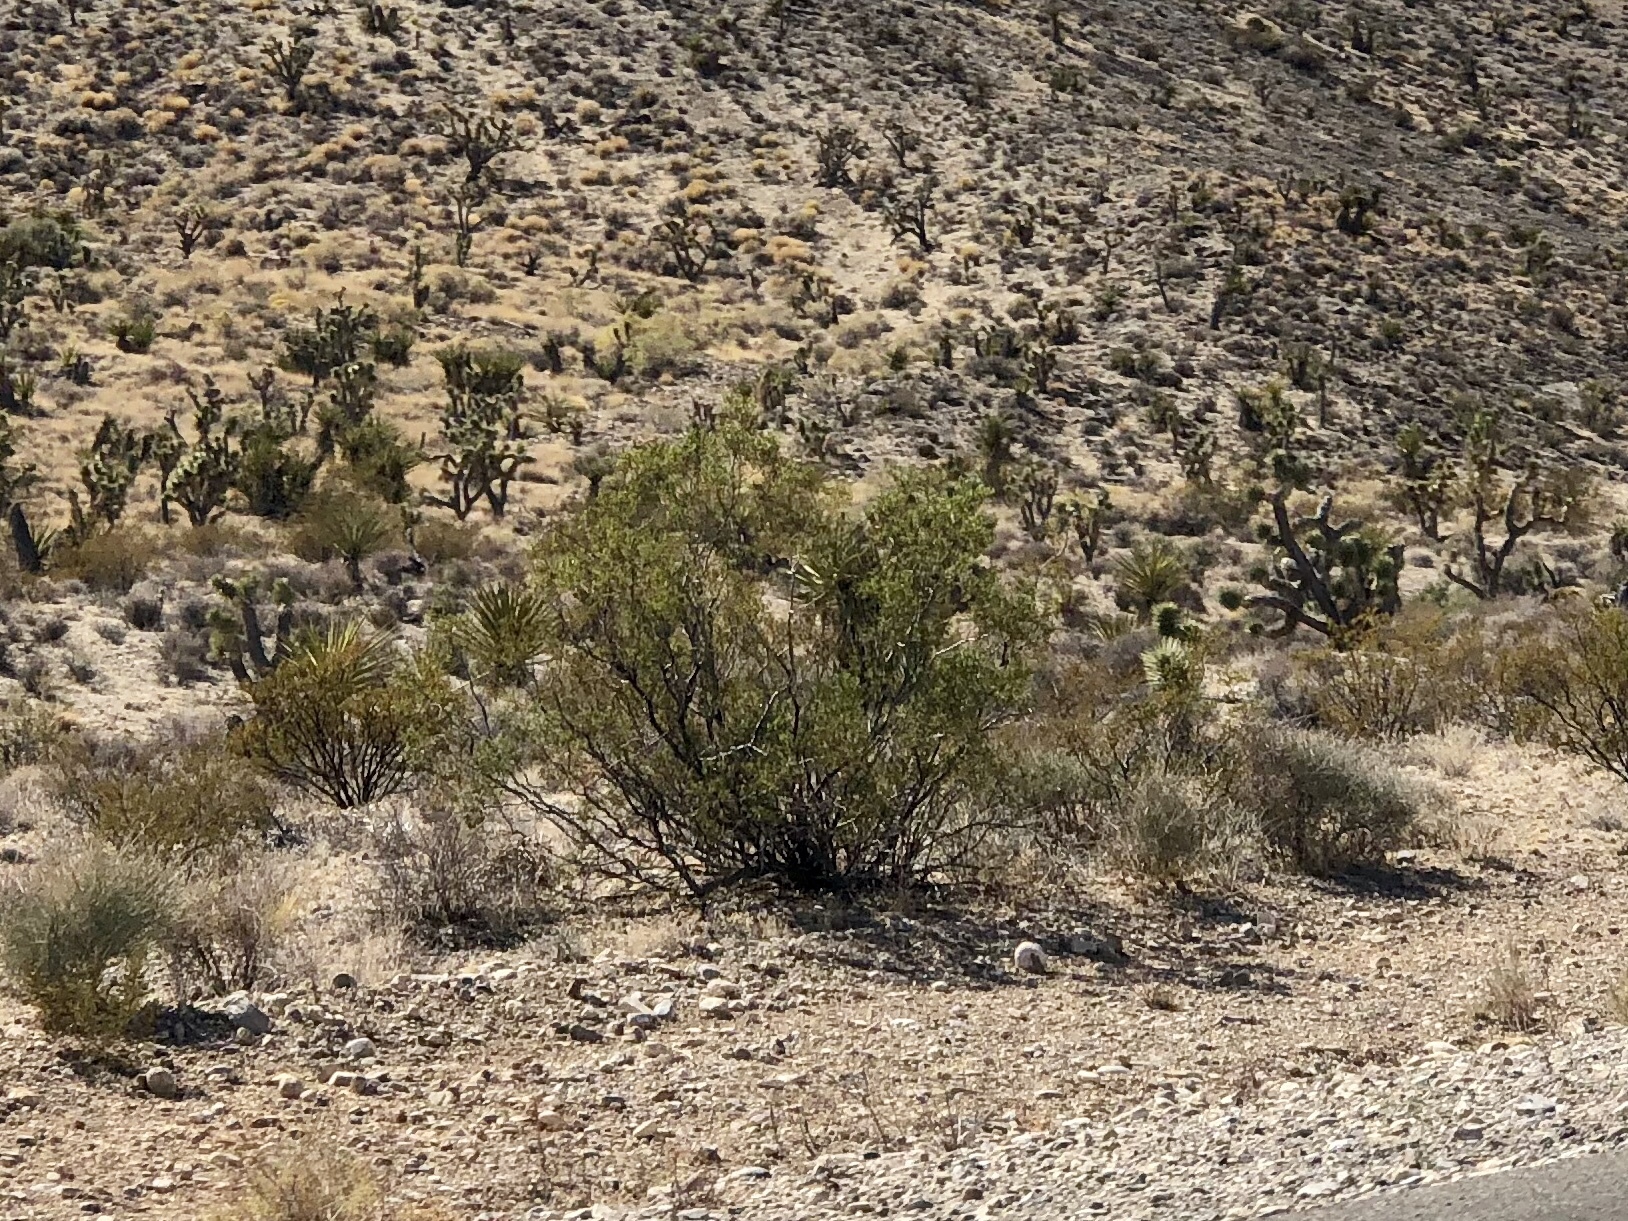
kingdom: Plantae
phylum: Tracheophyta
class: Magnoliopsida
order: Zygophyllales
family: Zygophyllaceae
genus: Larrea
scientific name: Larrea tridentata
